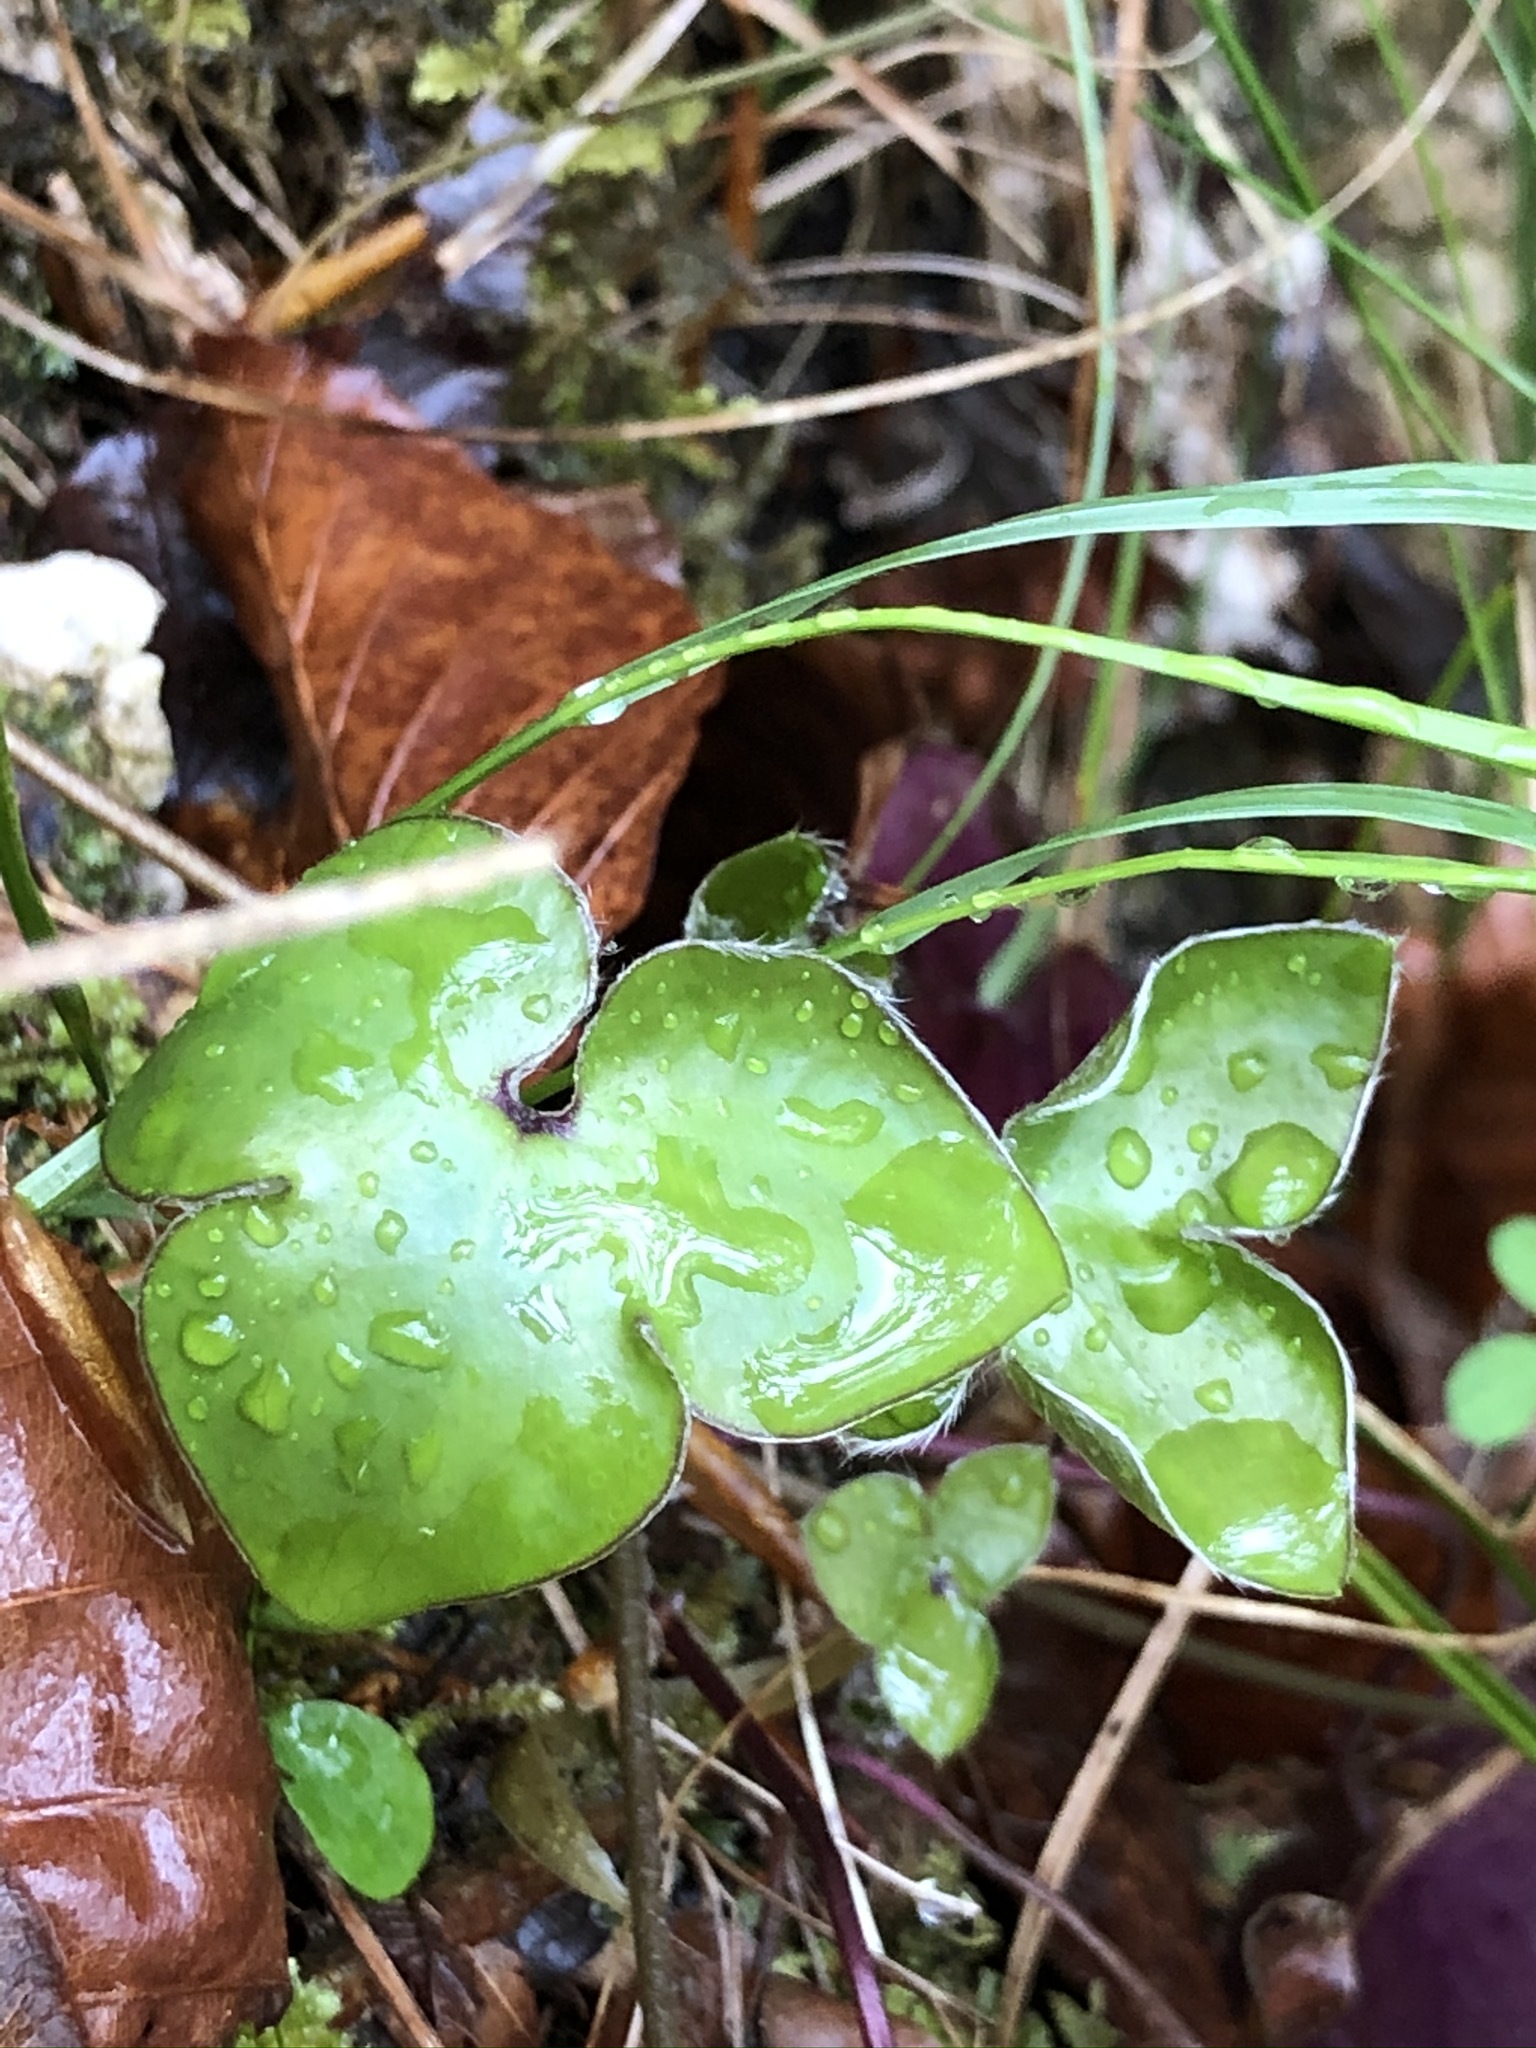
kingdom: Plantae
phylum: Tracheophyta
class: Magnoliopsida
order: Ranunculales
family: Ranunculaceae
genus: Hepatica
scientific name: Hepatica nobilis
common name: Liverleaf
